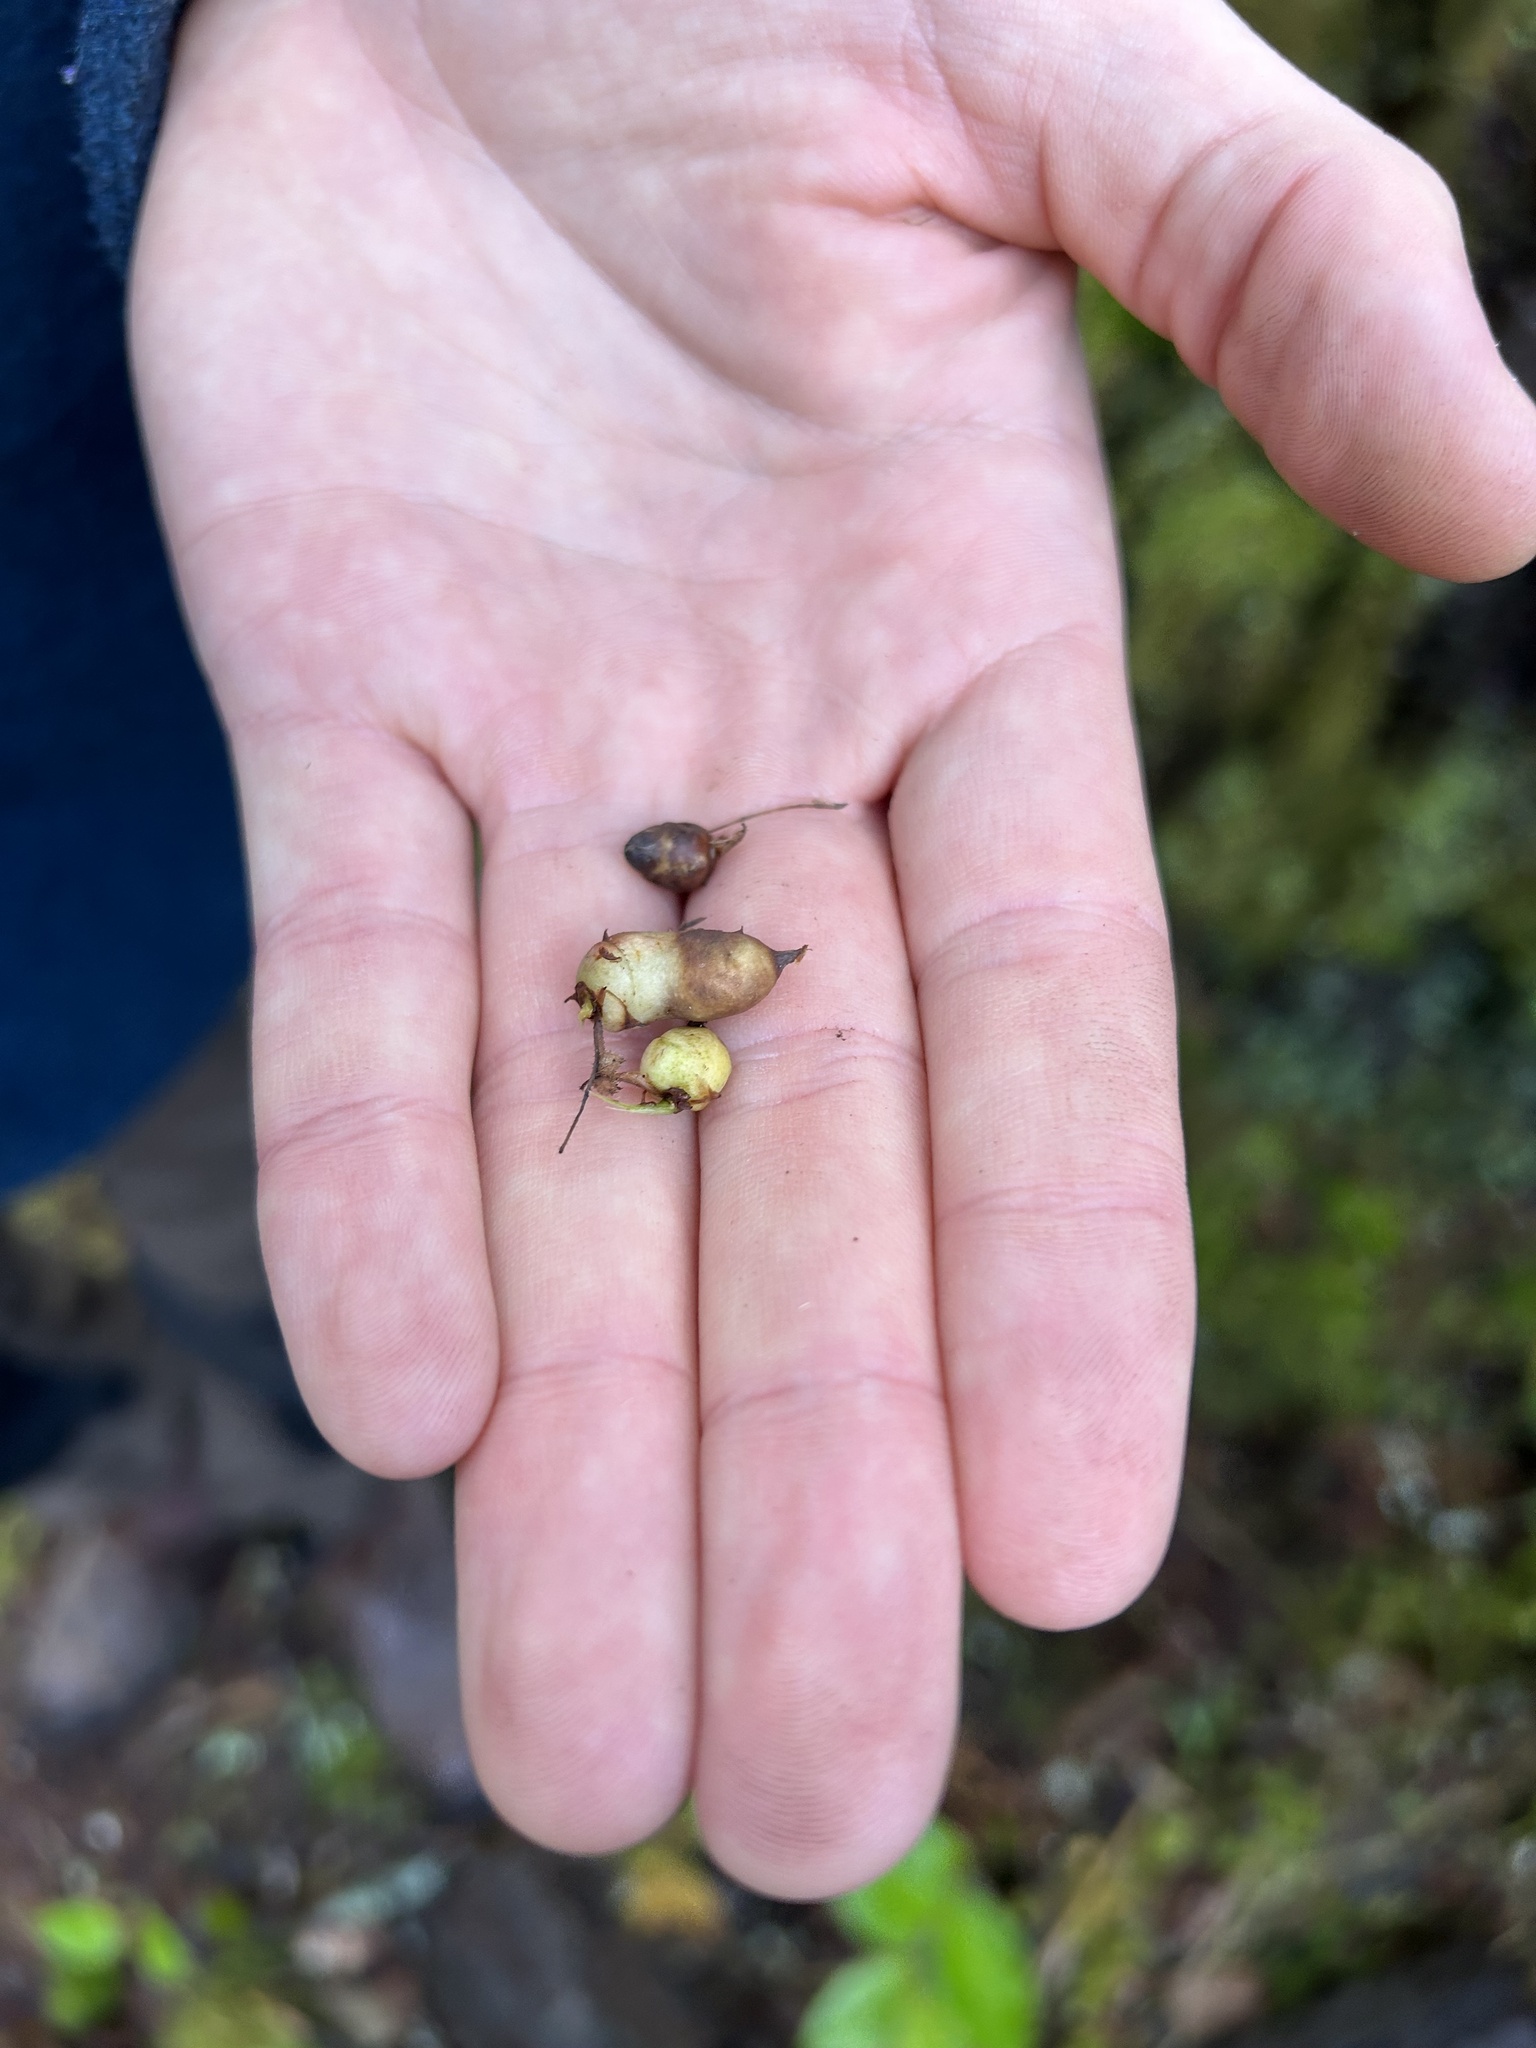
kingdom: Animalia
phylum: Arthropoda
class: Insecta
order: Hymenoptera
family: Cynipidae
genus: Diplolepis
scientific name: Diplolepis
